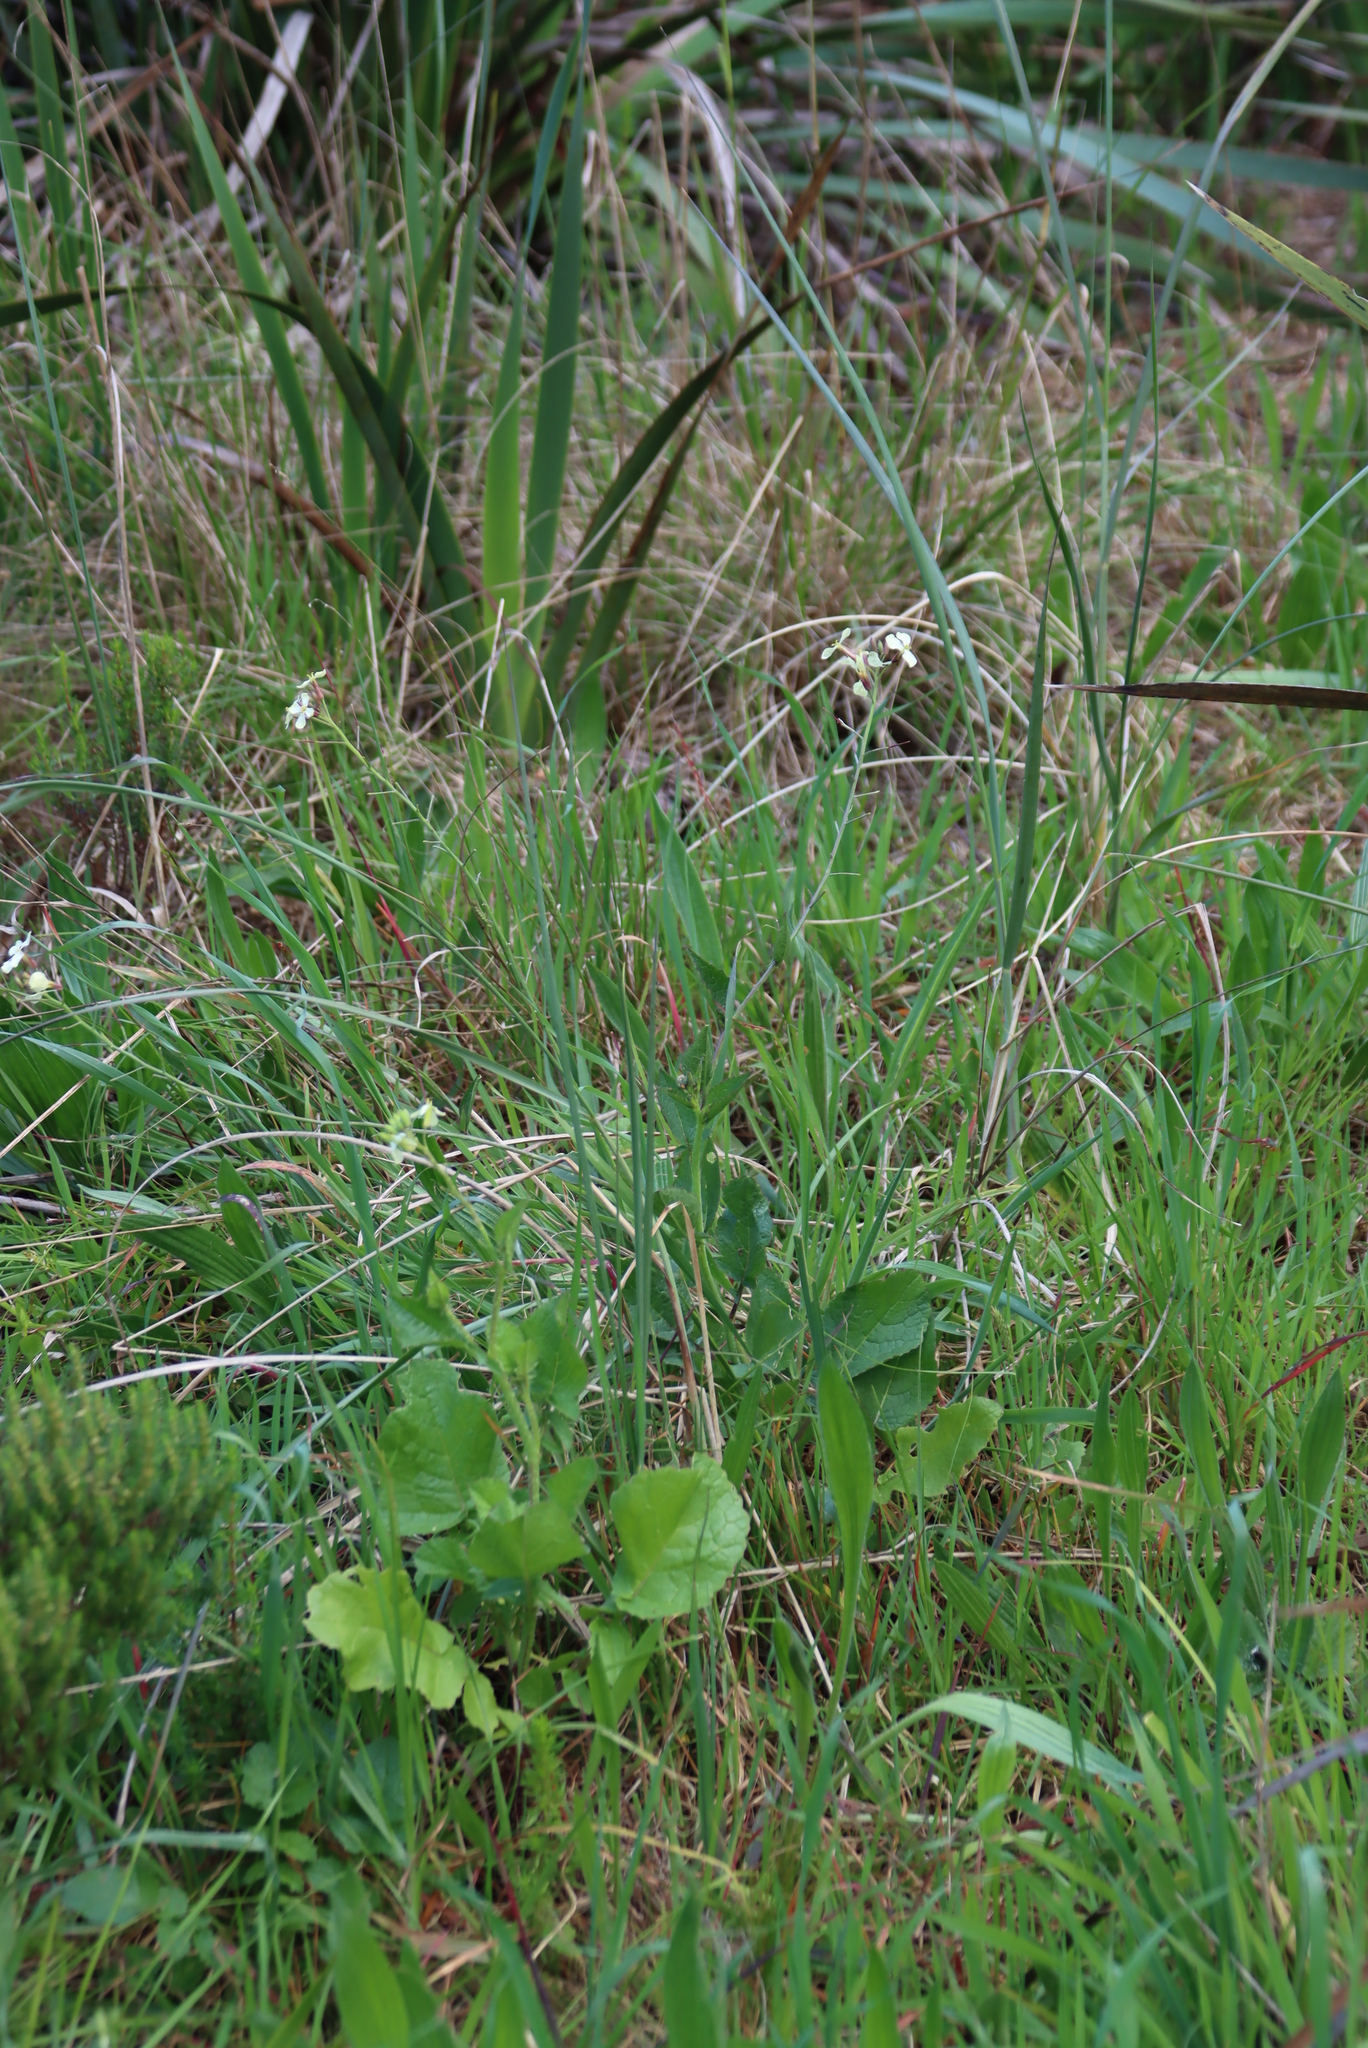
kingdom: Plantae
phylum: Tracheophyta
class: Magnoliopsida
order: Brassicales
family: Brassicaceae
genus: Raphanus
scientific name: Raphanus raphanistrum
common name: Wild radish
